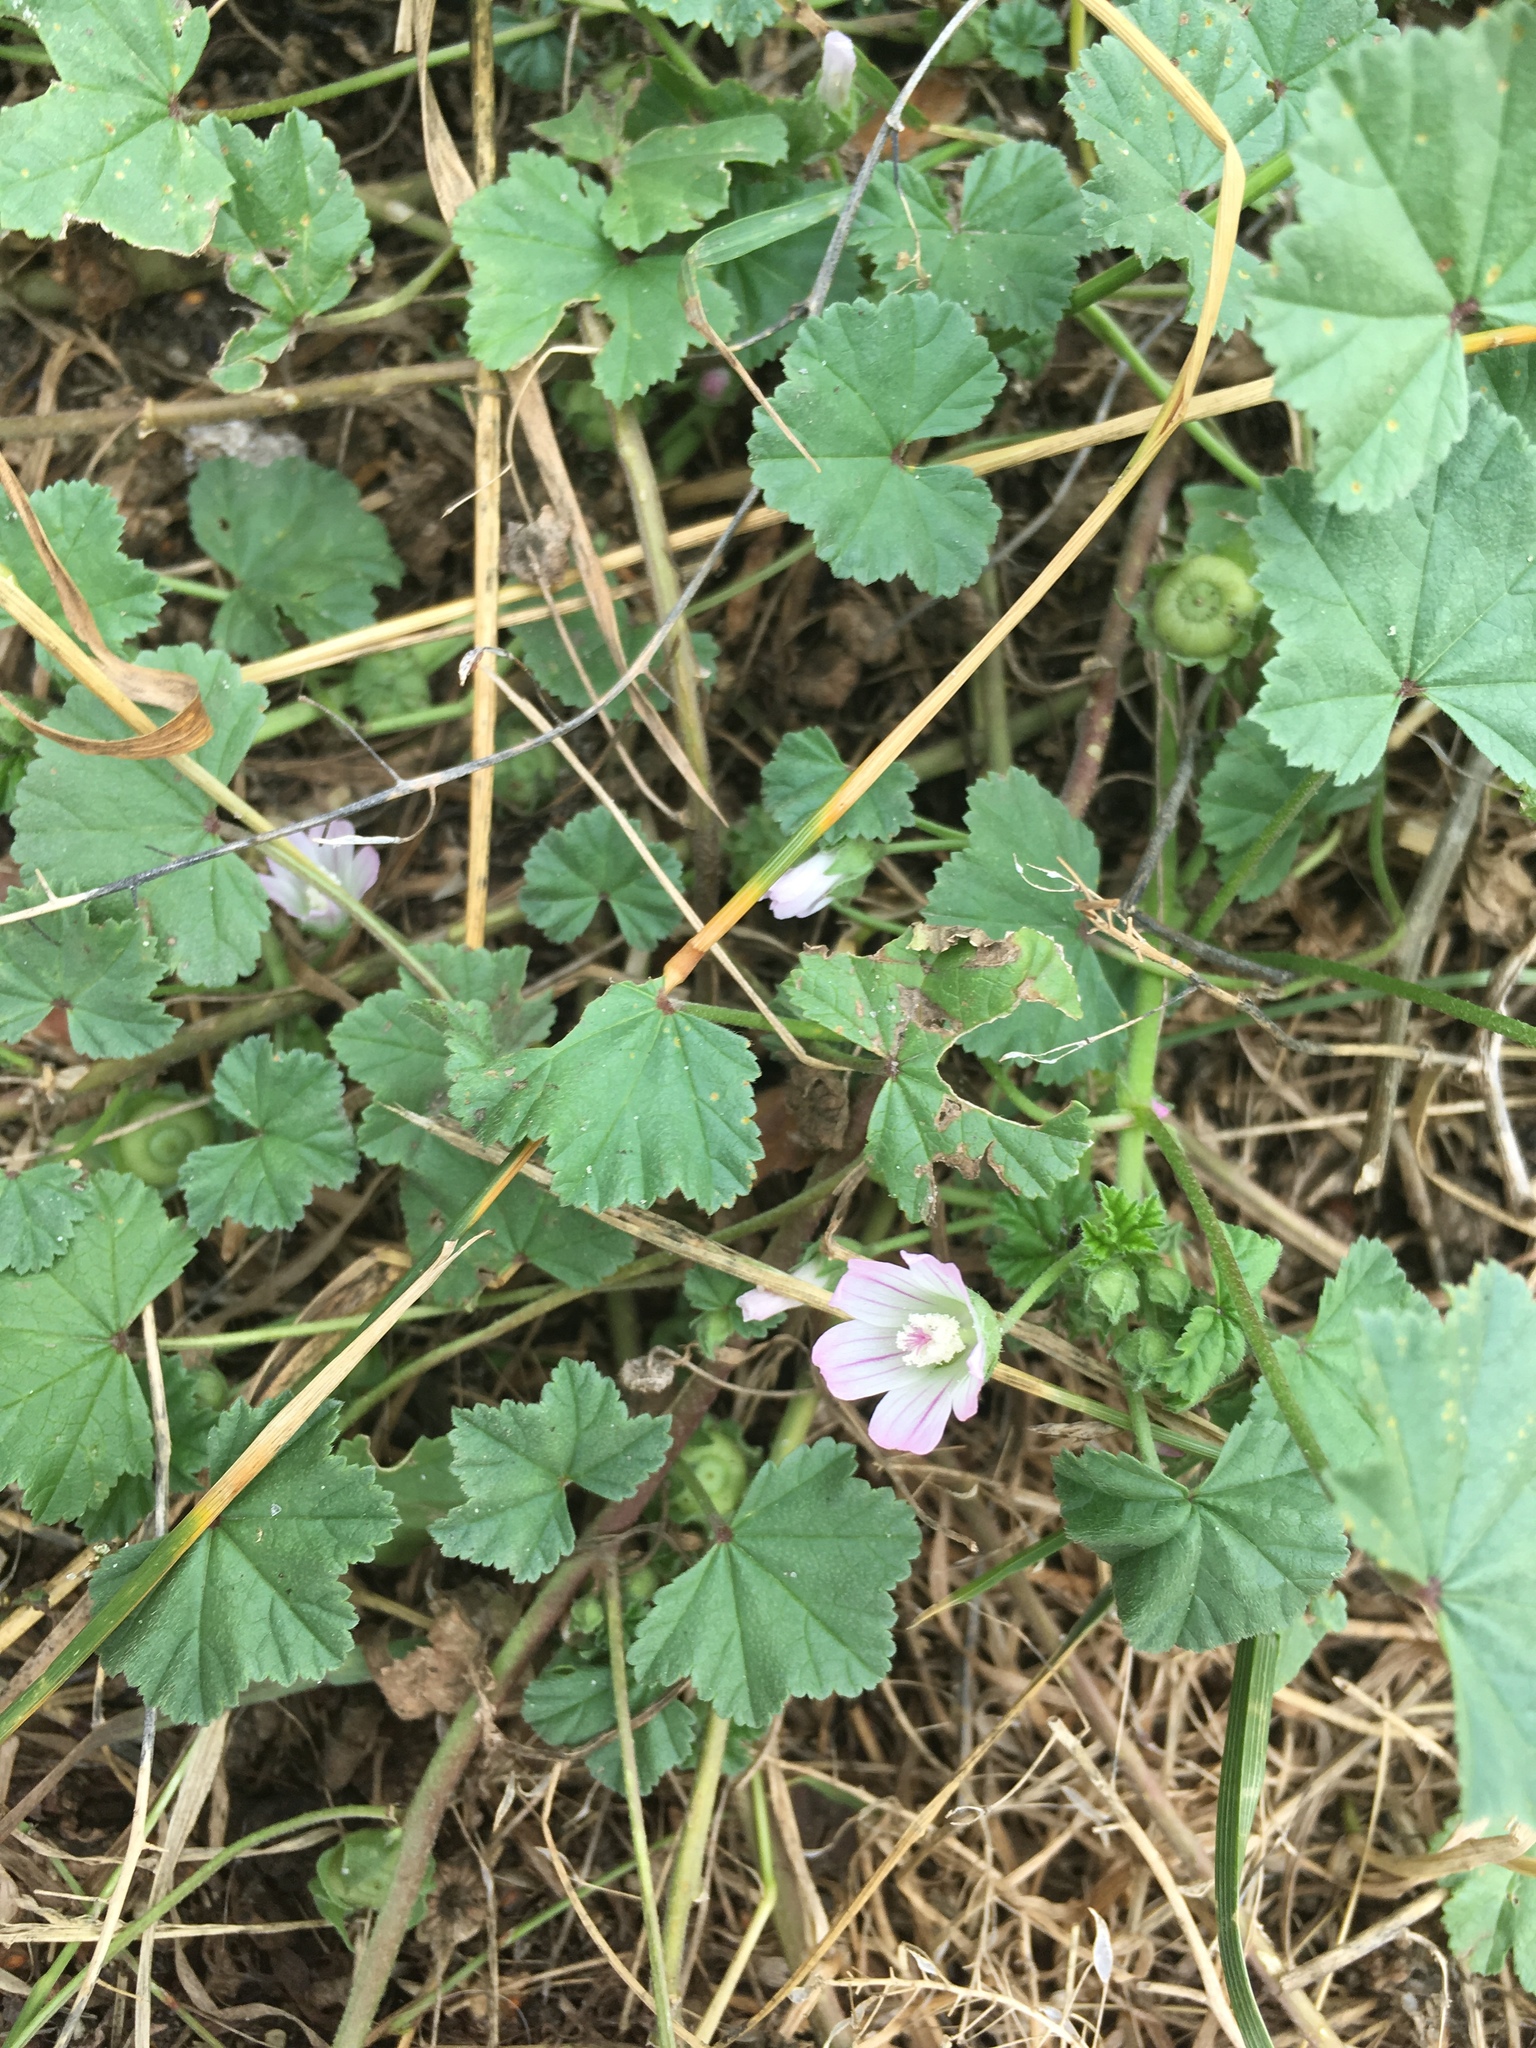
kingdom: Plantae
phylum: Tracheophyta
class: Magnoliopsida
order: Malvales
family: Malvaceae
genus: Malva
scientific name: Malva neglecta
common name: Common mallow
